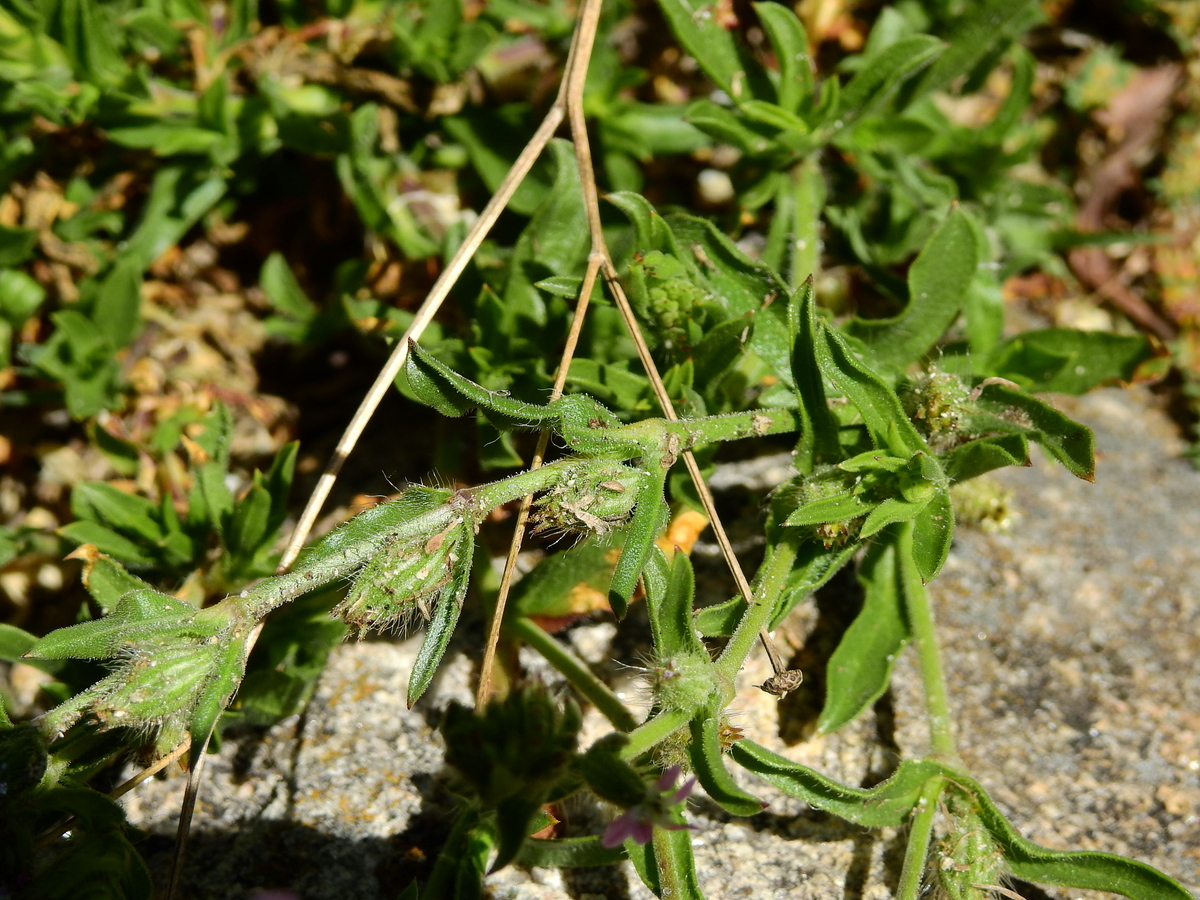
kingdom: Plantae
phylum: Tracheophyta
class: Magnoliopsida
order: Caryophyllales
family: Caryophyllaceae
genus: Silene
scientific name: Silene gallica
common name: Small-flowered catchfly
